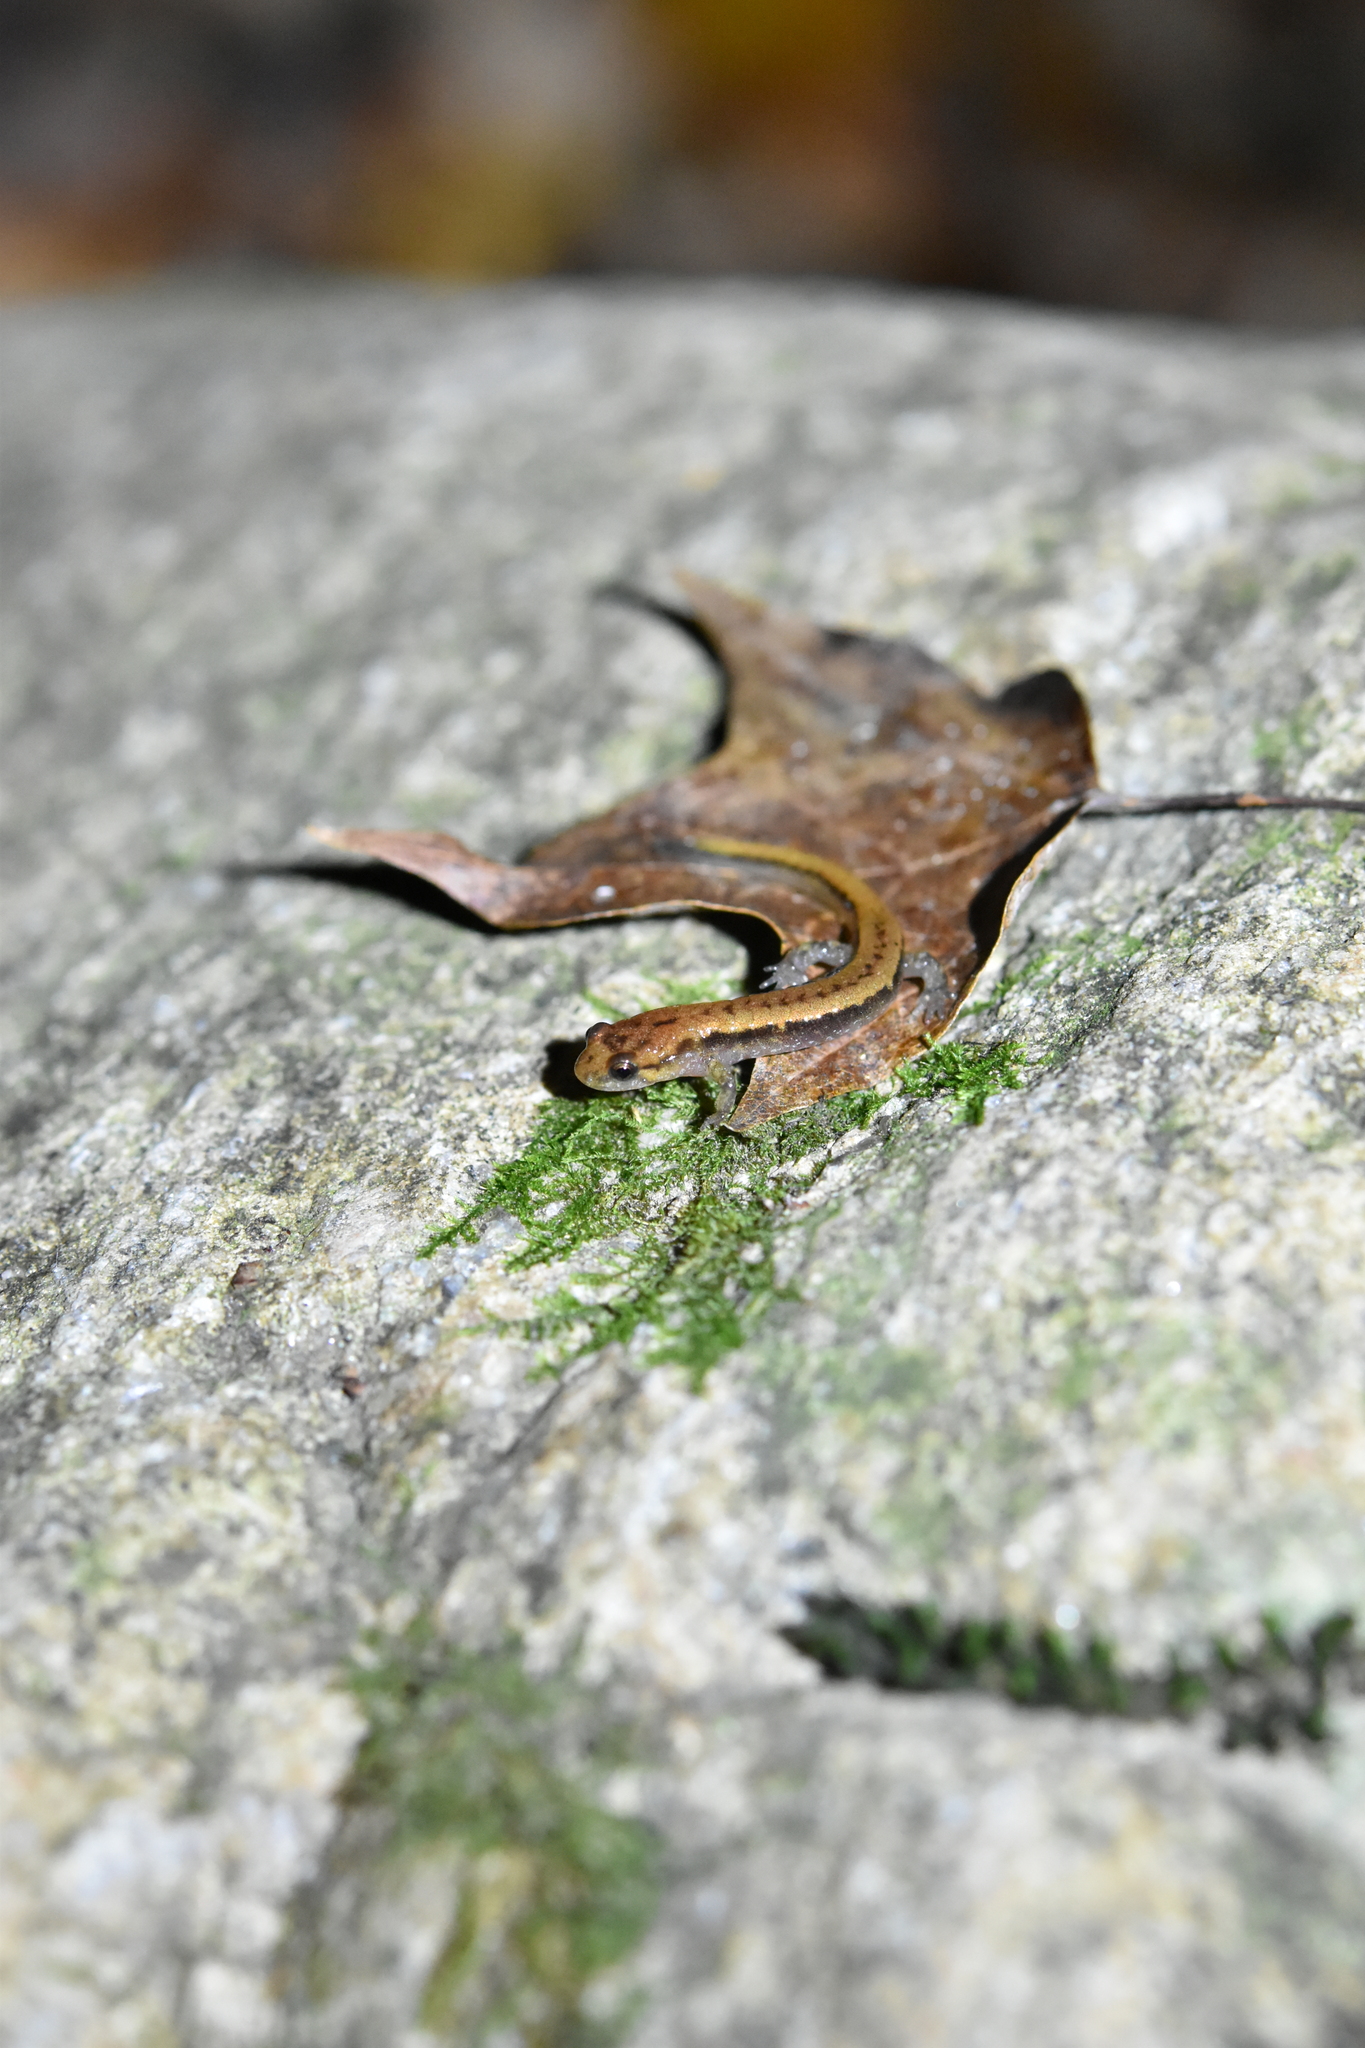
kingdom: Animalia
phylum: Chordata
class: Amphibia
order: Caudata
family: Plethodontidae
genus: Desmognathus
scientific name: Desmognathus ochrophaeus
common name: Allegheny mountain dusky salamander
